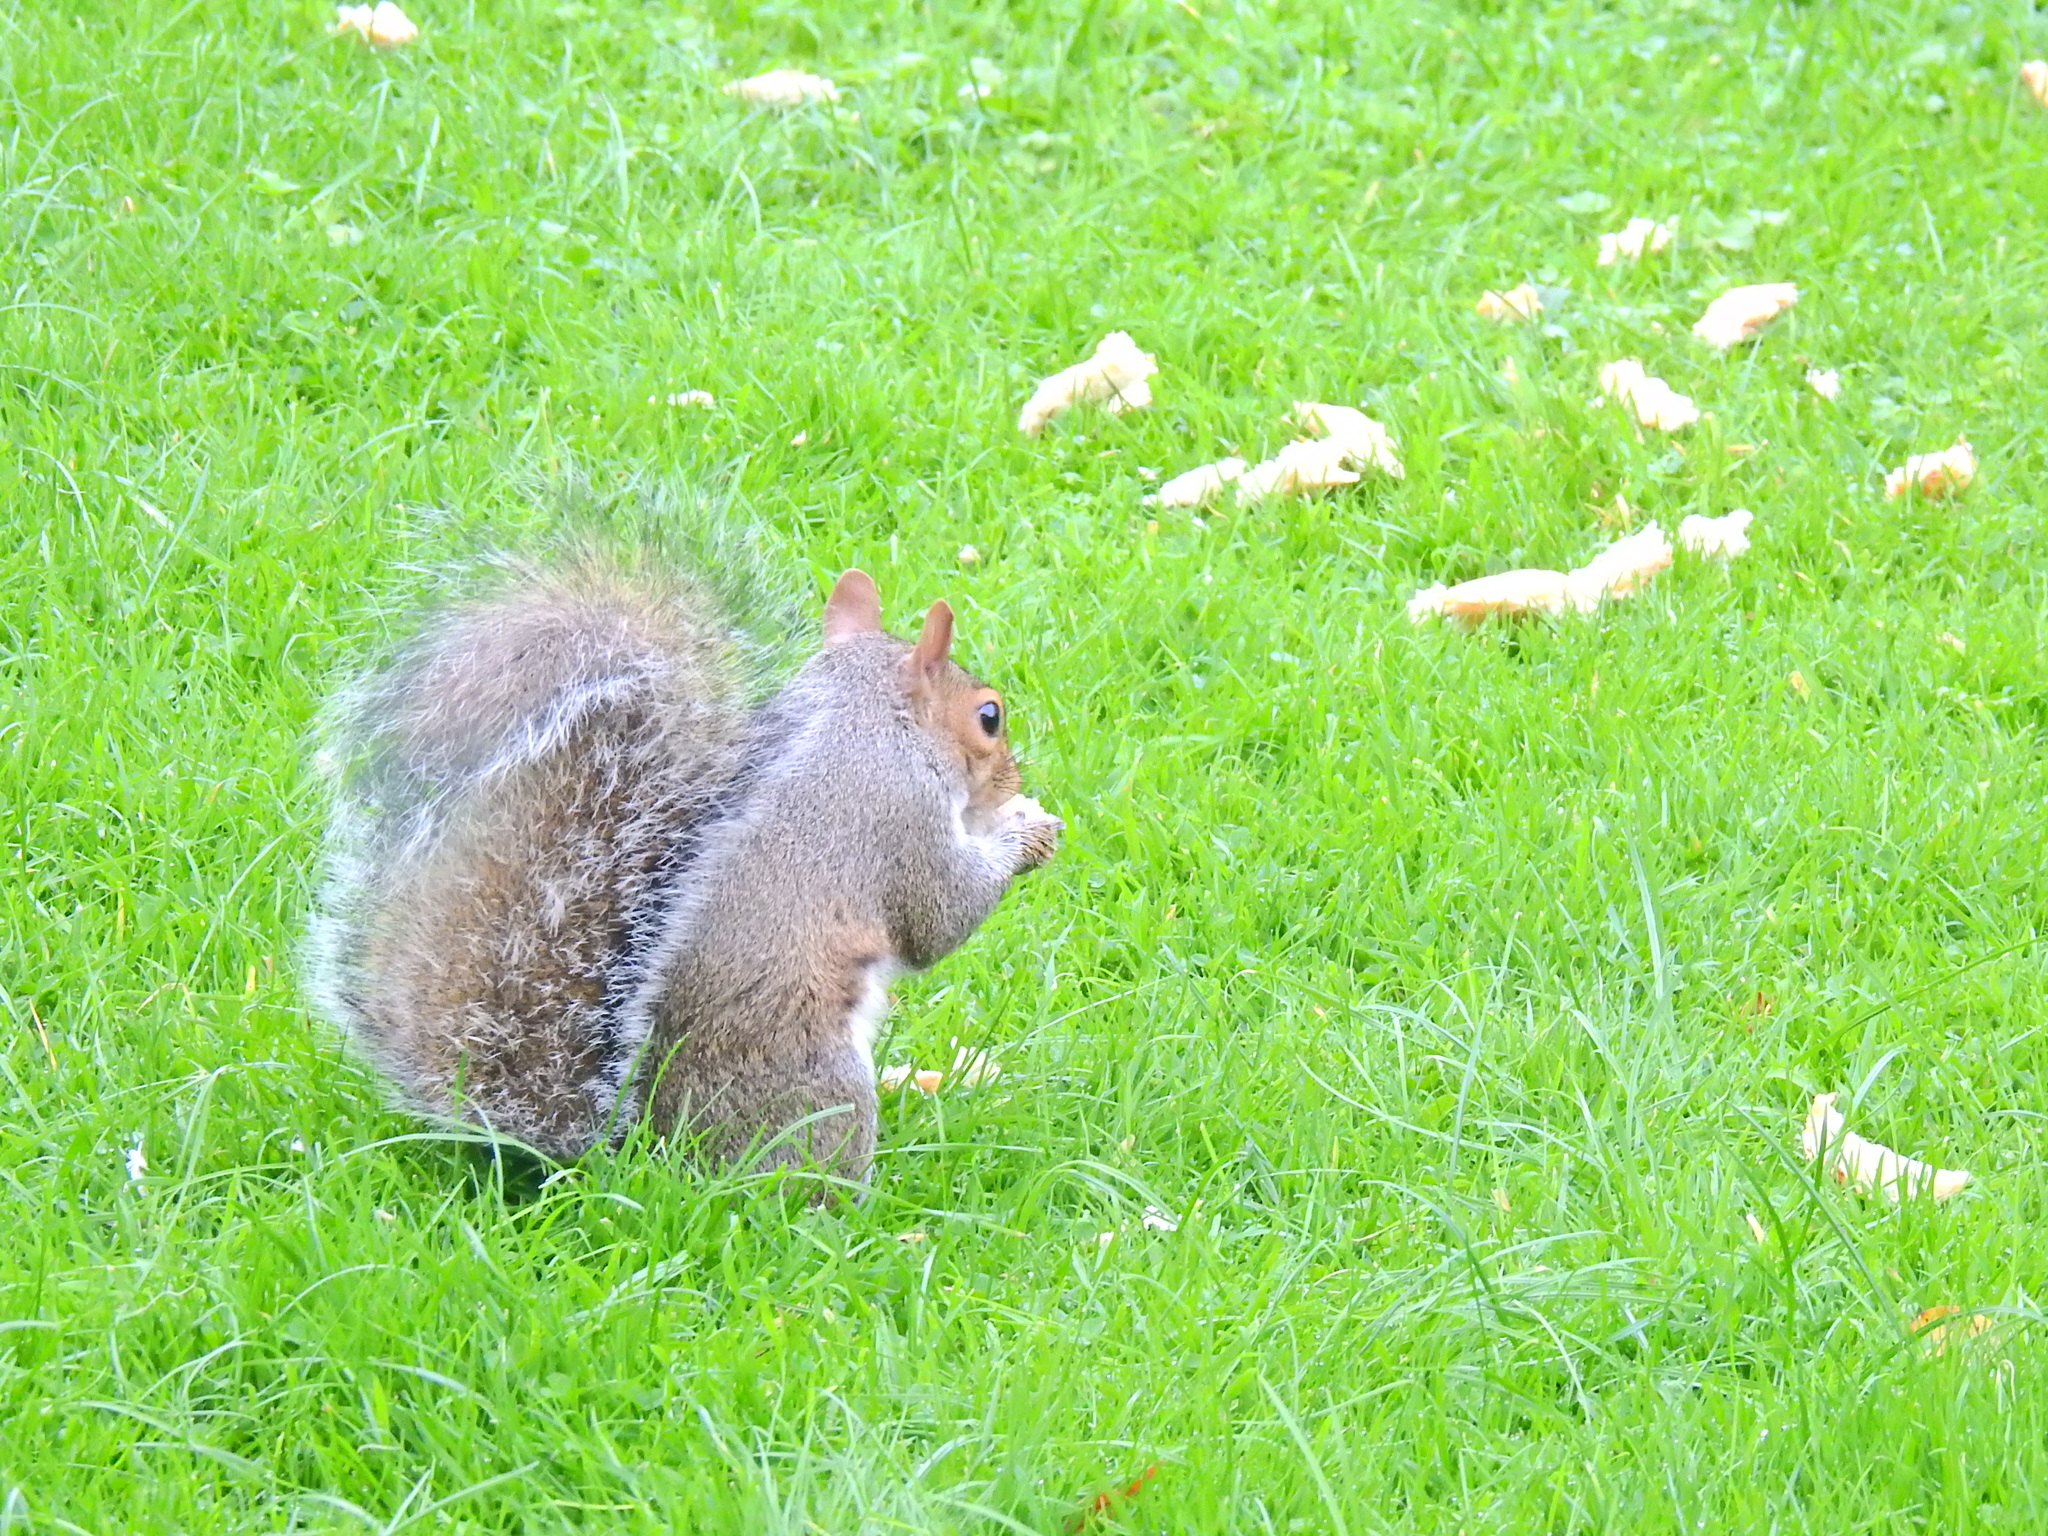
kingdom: Animalia
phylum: Chordata
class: Mammalia
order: Rodentia
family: Sciuridae
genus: Sciurus
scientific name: Sciurus carolinensis
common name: Eastern gray squirrel
